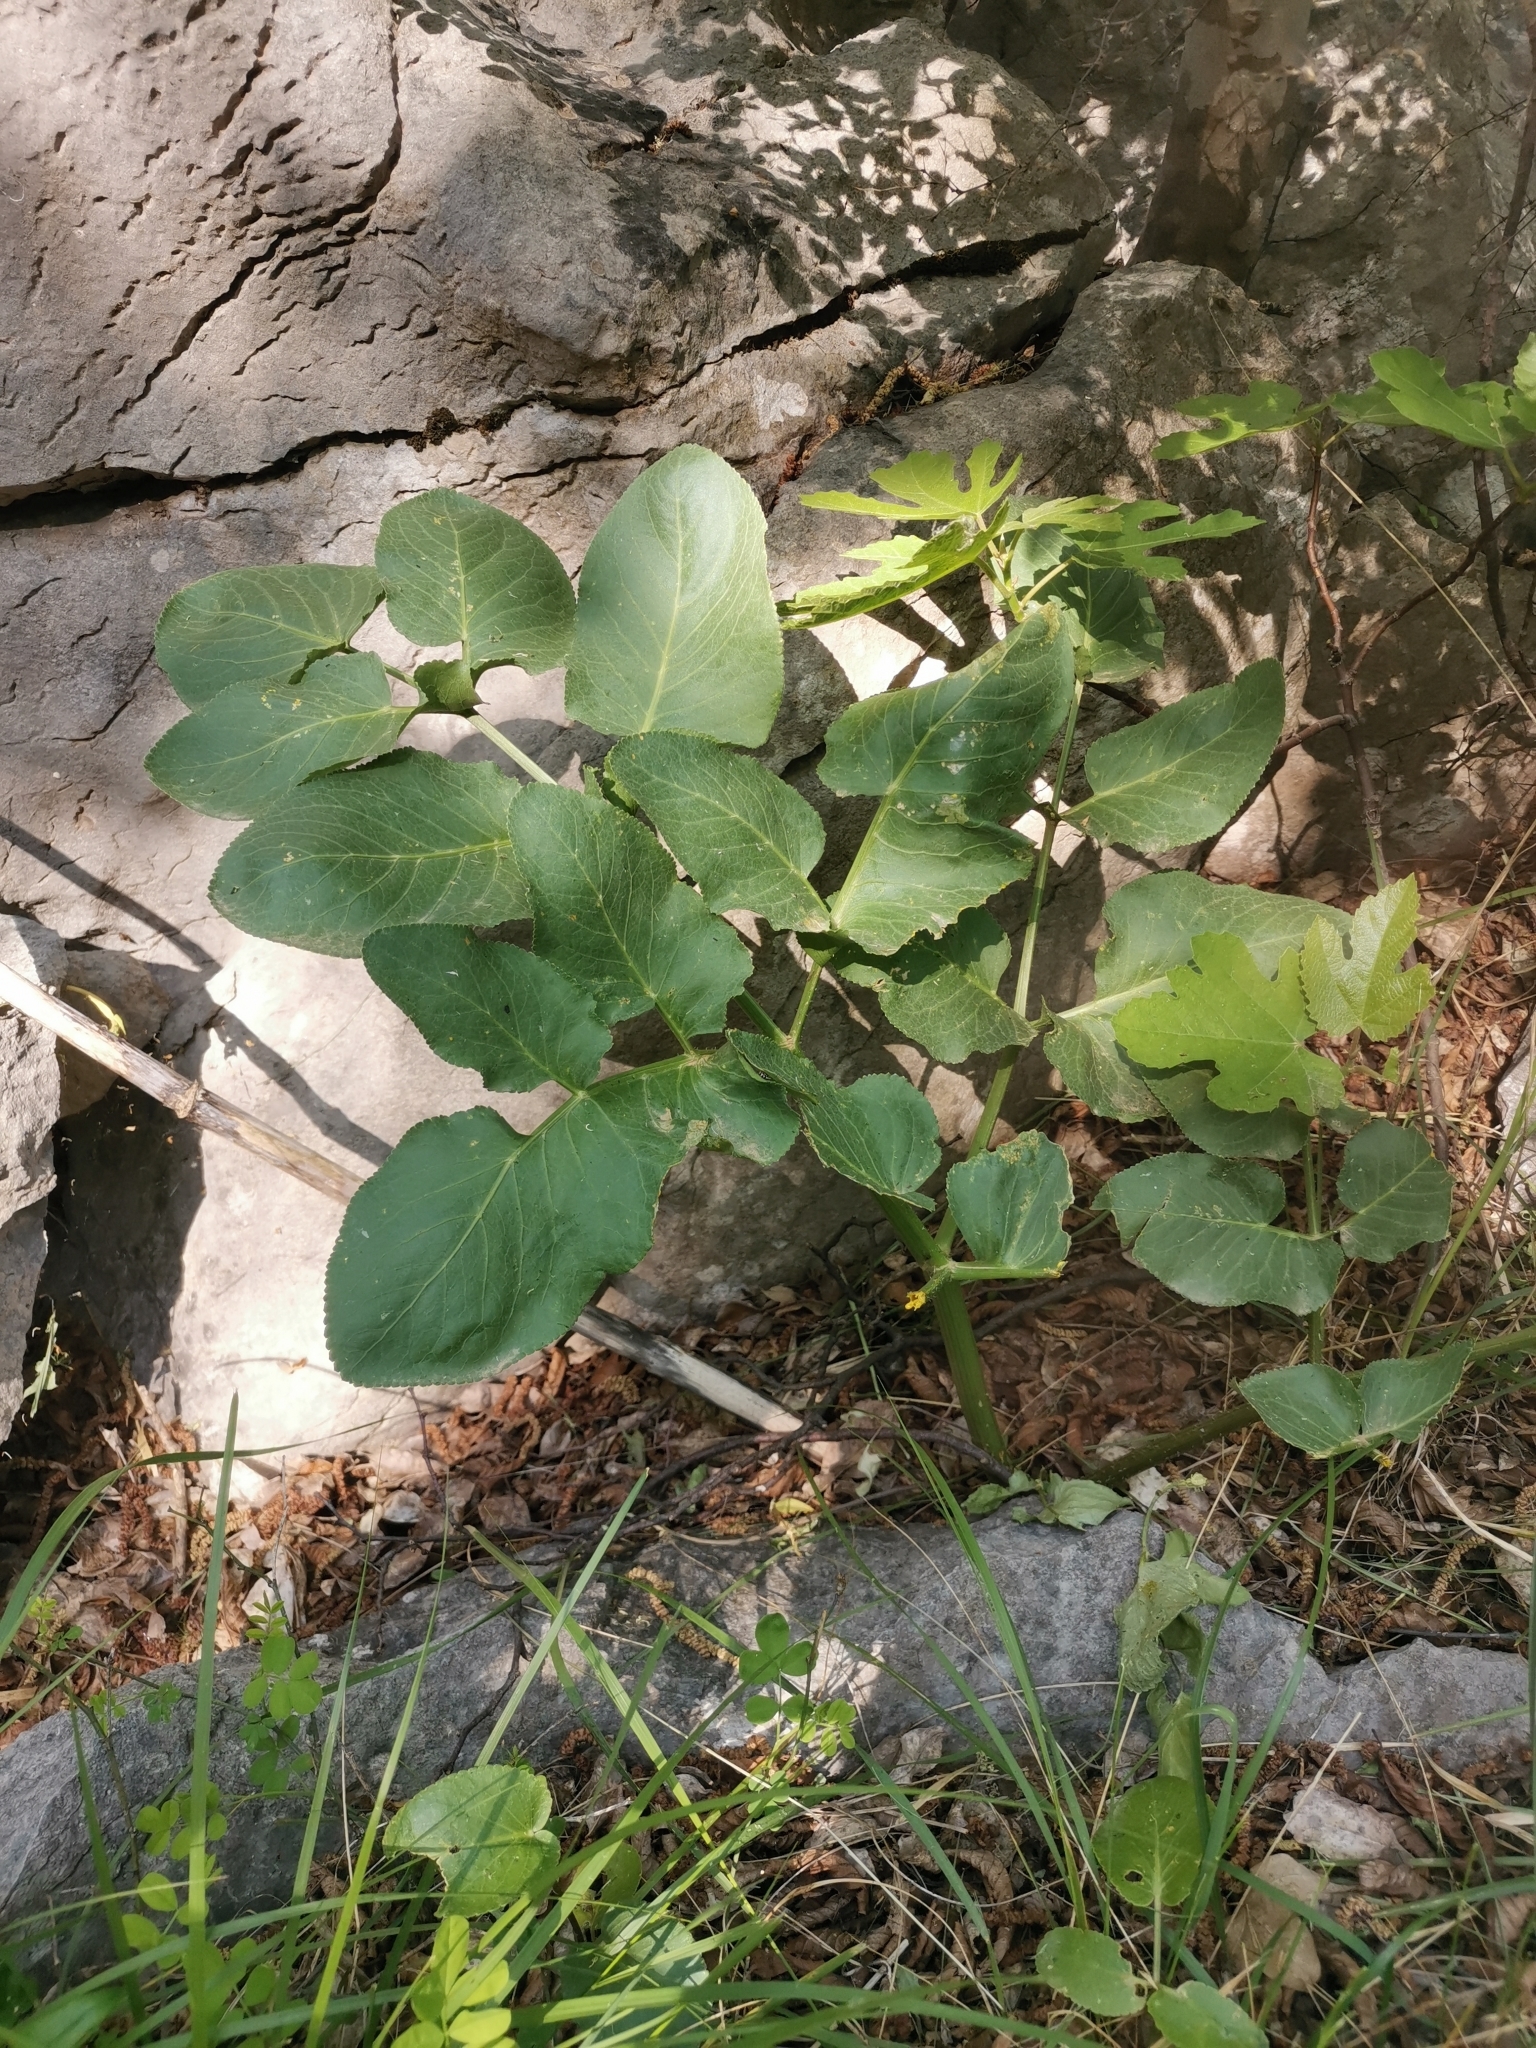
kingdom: Plantae
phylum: Tracheophyta
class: Magnoliopsida
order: Apiales
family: Apiaceae
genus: Laserpitium
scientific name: Laserpitium latifolium
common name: Broadleaf sermountain
